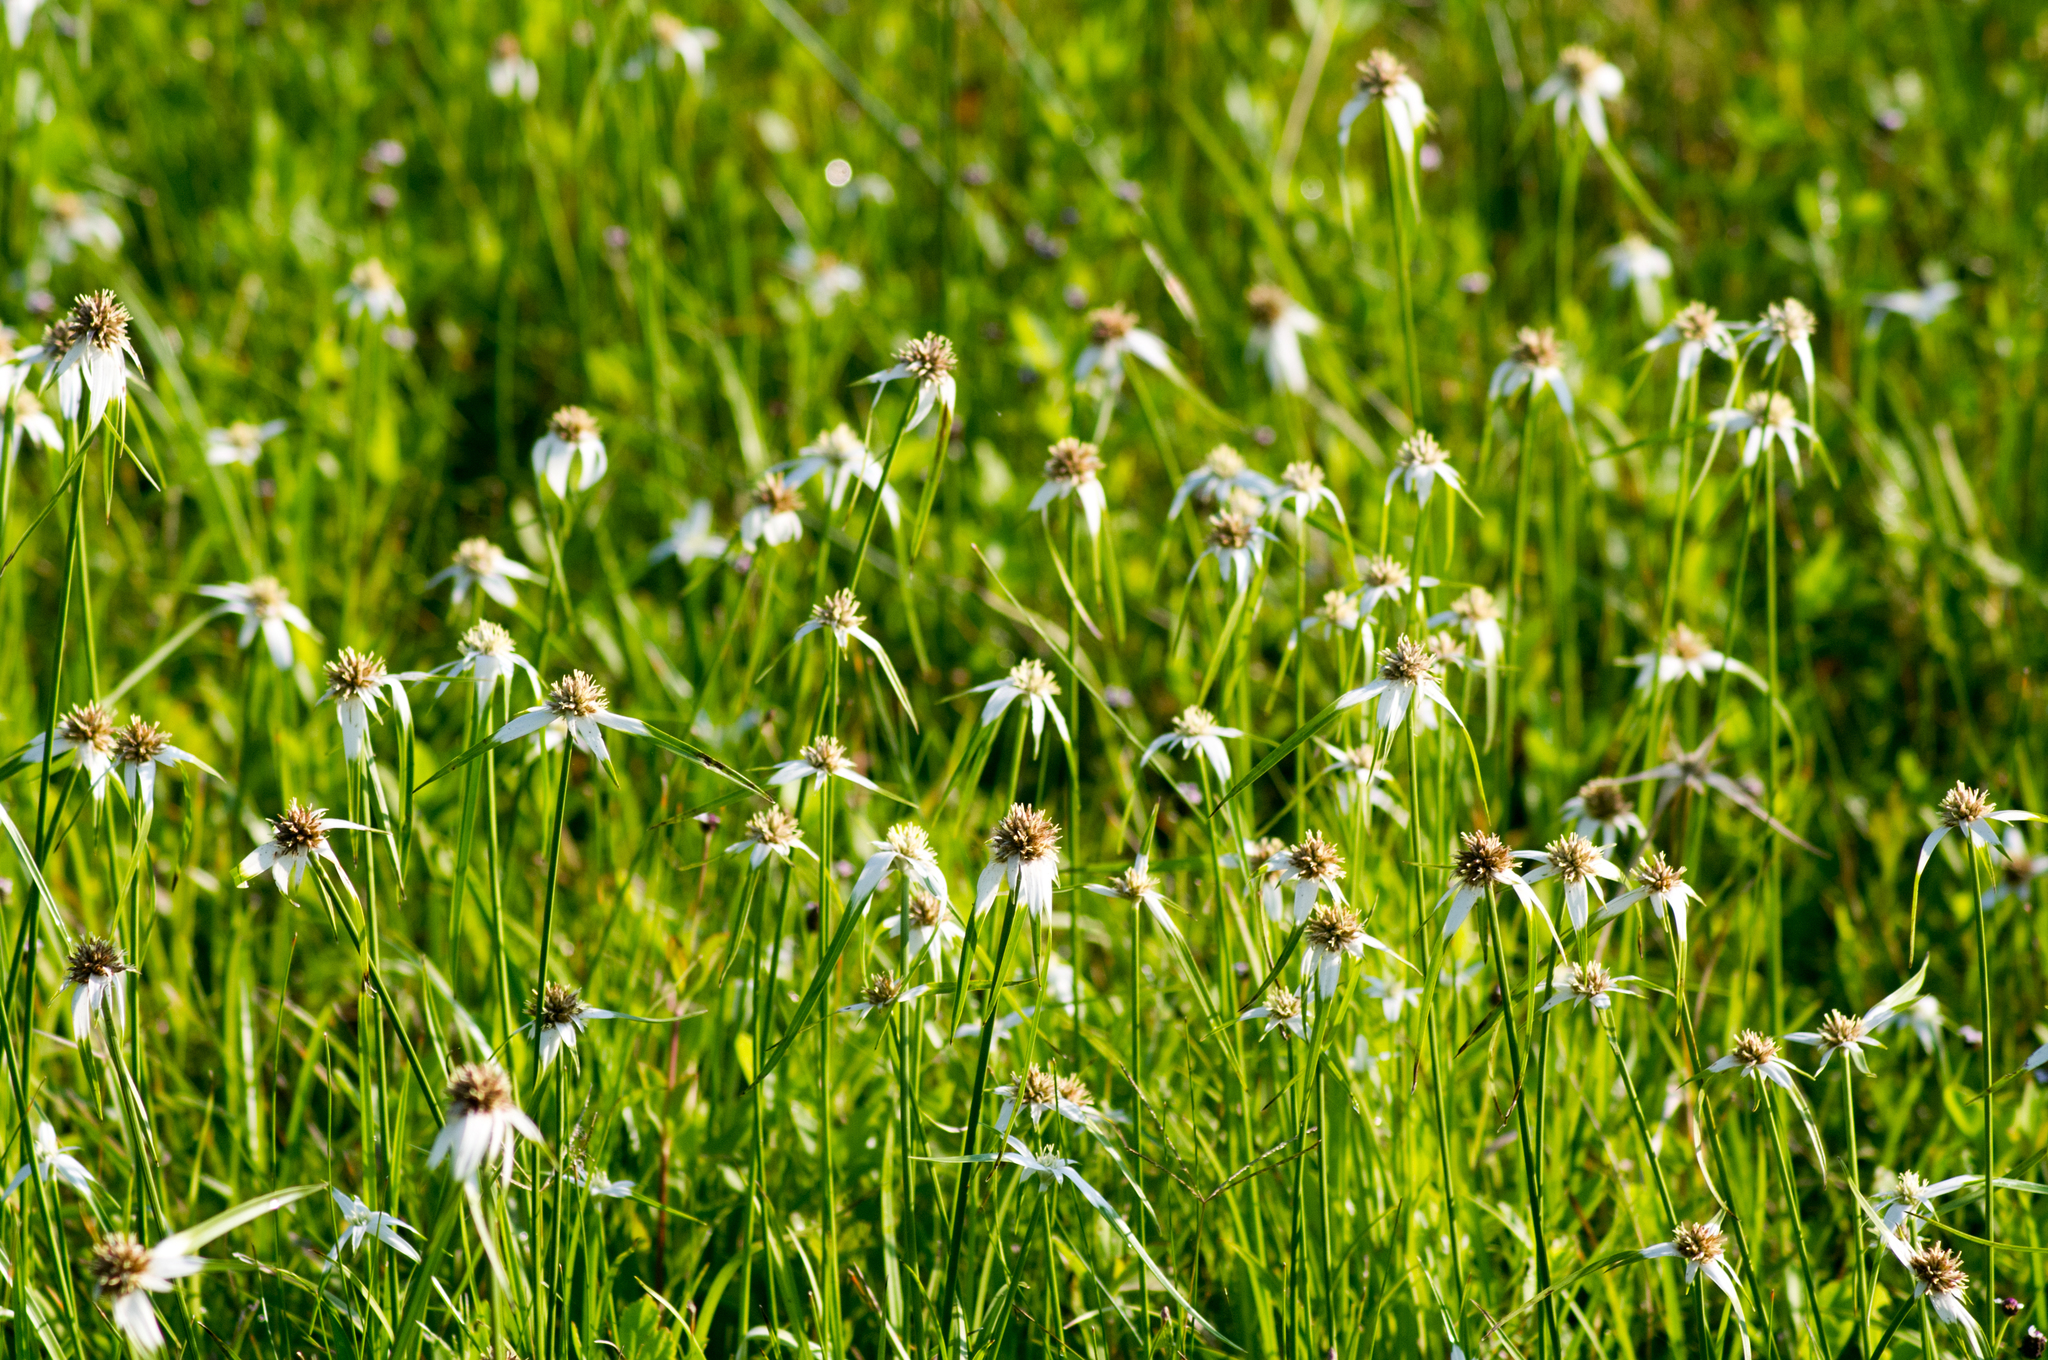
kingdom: Plantae
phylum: Tracheophyta
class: Liliopsida
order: Poales
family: Cyperaceae
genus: Rhynchospora
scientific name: Rhynchospora colorata
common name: Star sedge
